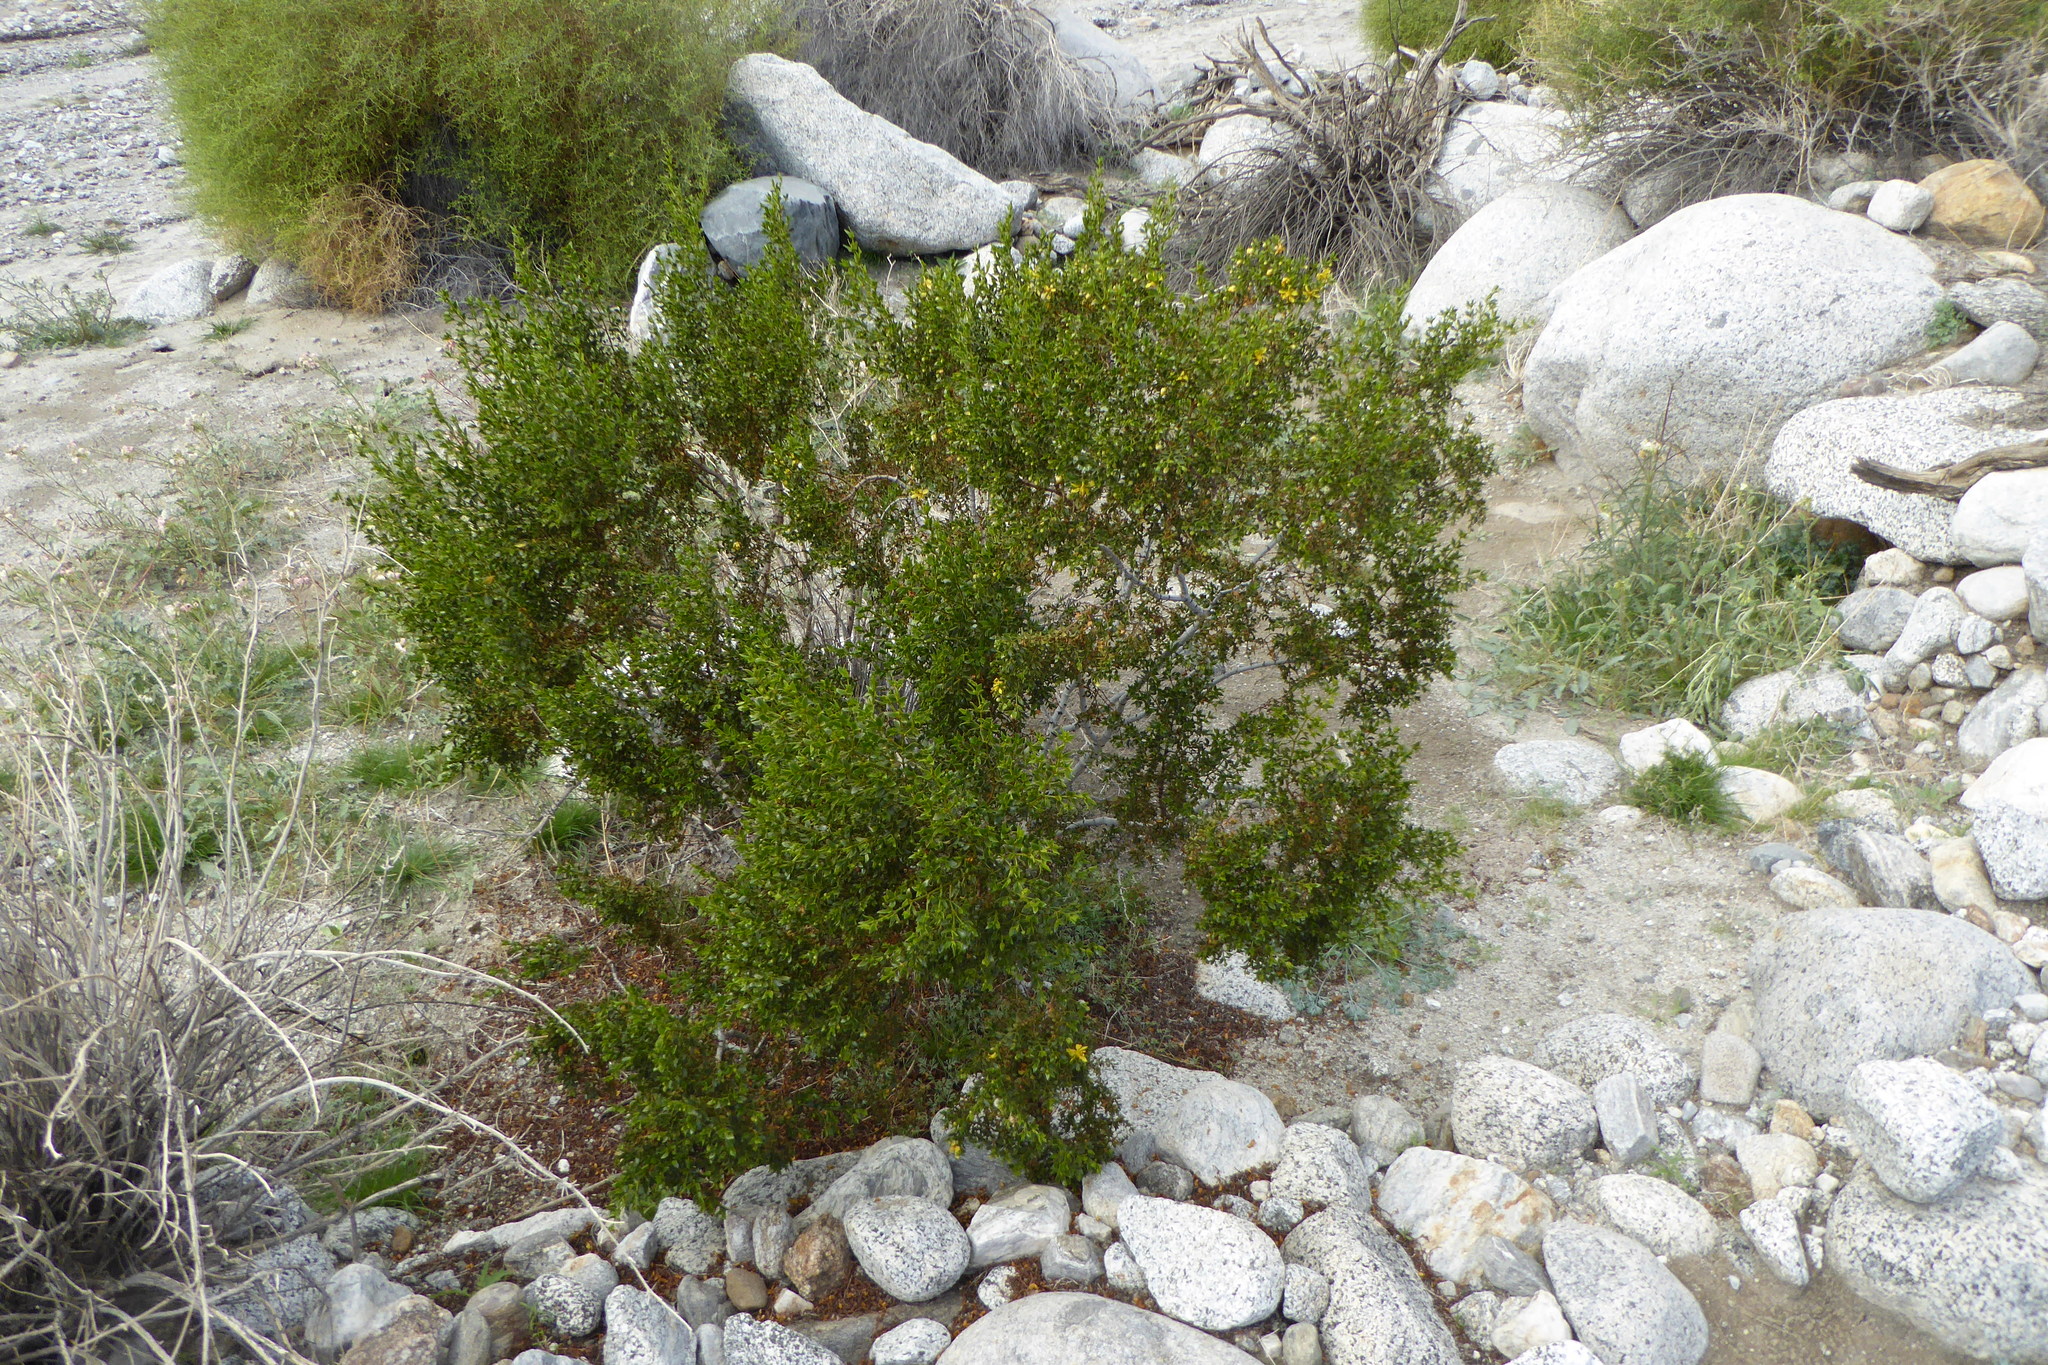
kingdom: Plantae
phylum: Tracheophyta
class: Magnoliopsida
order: Zygophyllales
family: Zygophyllaceae
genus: Larrea
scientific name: Larrea tridentata
